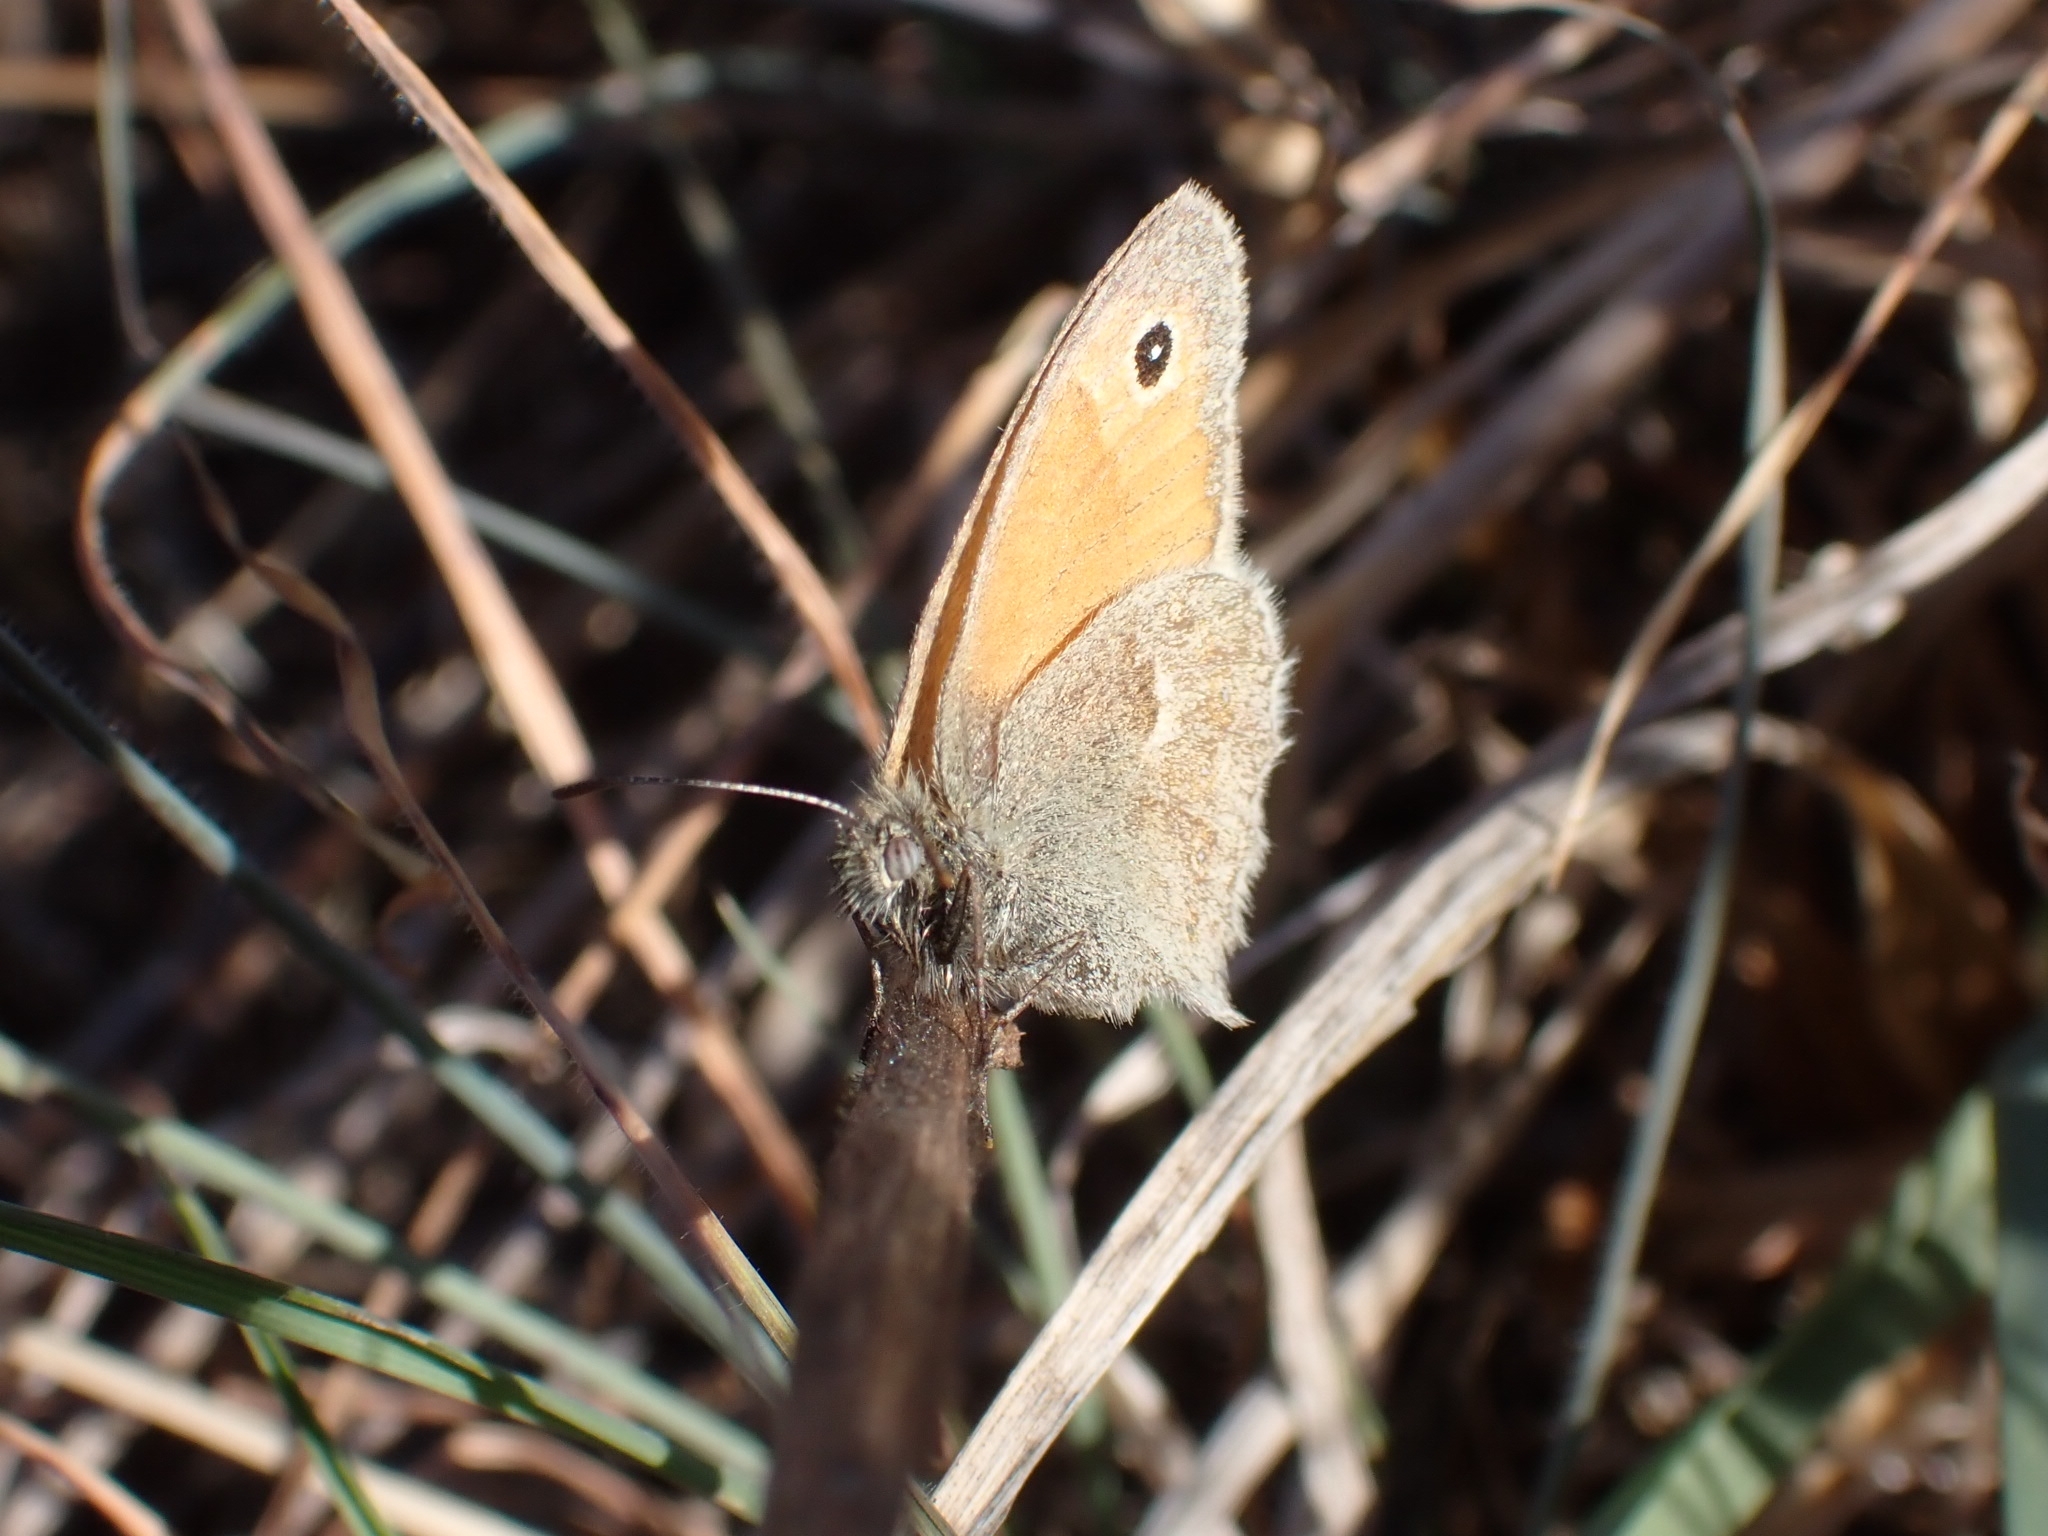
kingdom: Animalia
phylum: Arthropoda
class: Insecta
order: Lepidoptera
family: Nymphalidae
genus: Coenonympha
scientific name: Coenonympha pamphilus
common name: Small heath
